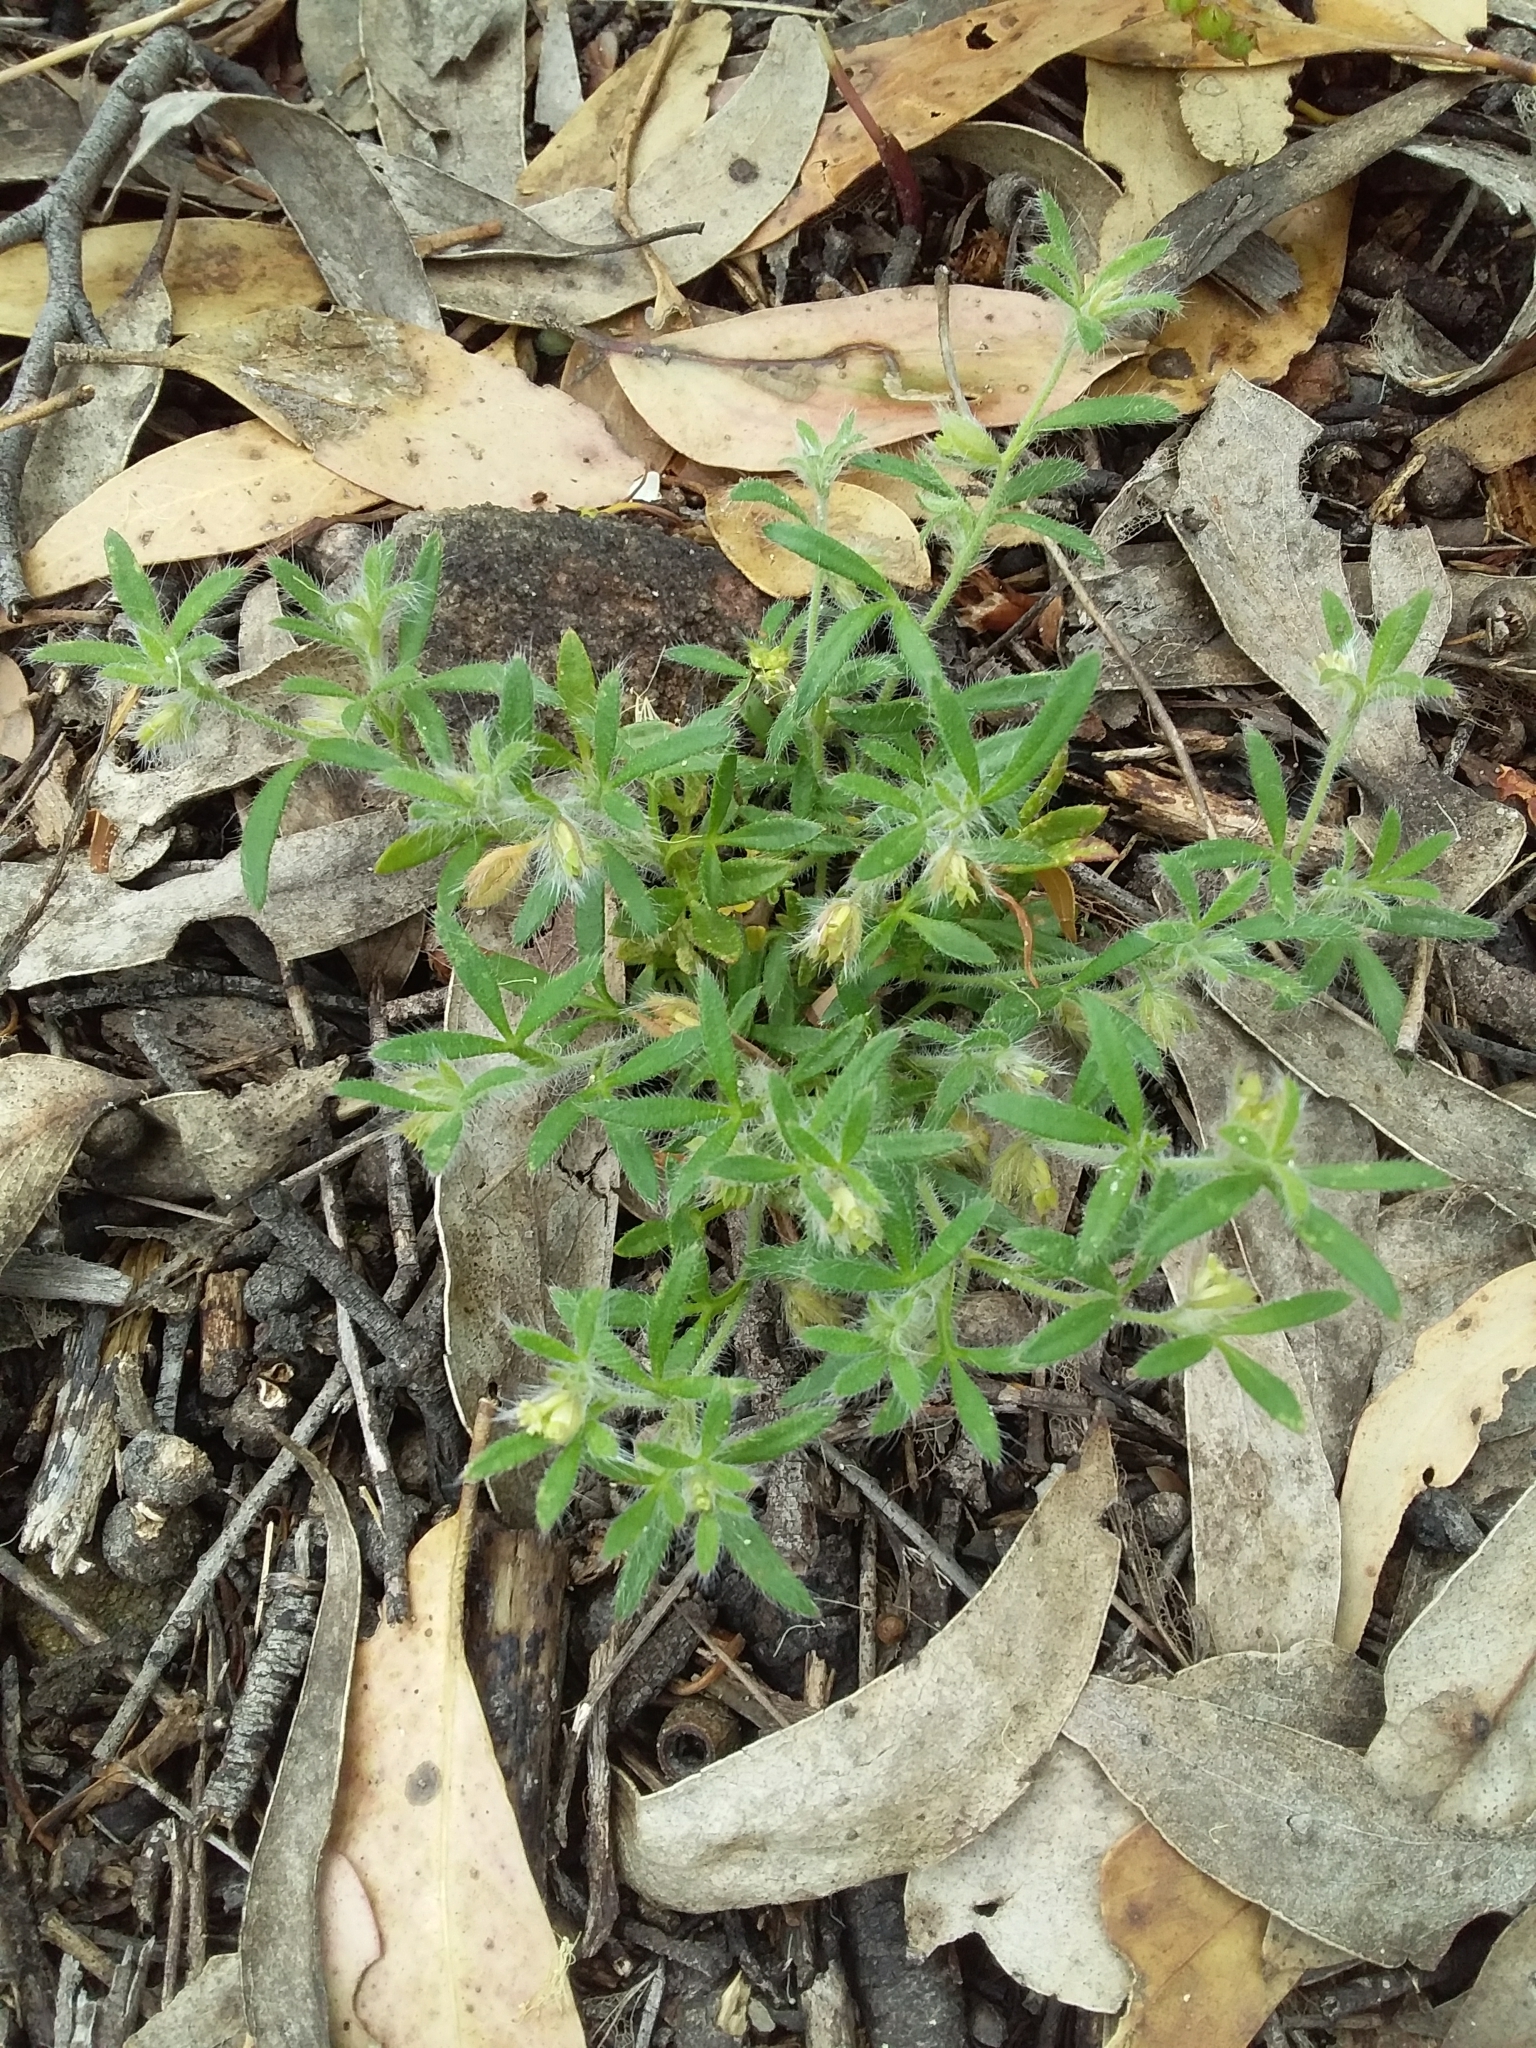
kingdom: Plantae
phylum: Tracheophyta
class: Magnoliopsida
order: Apiales
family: Apiaceae
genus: Xanthosia
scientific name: Xanthosia huegelii
